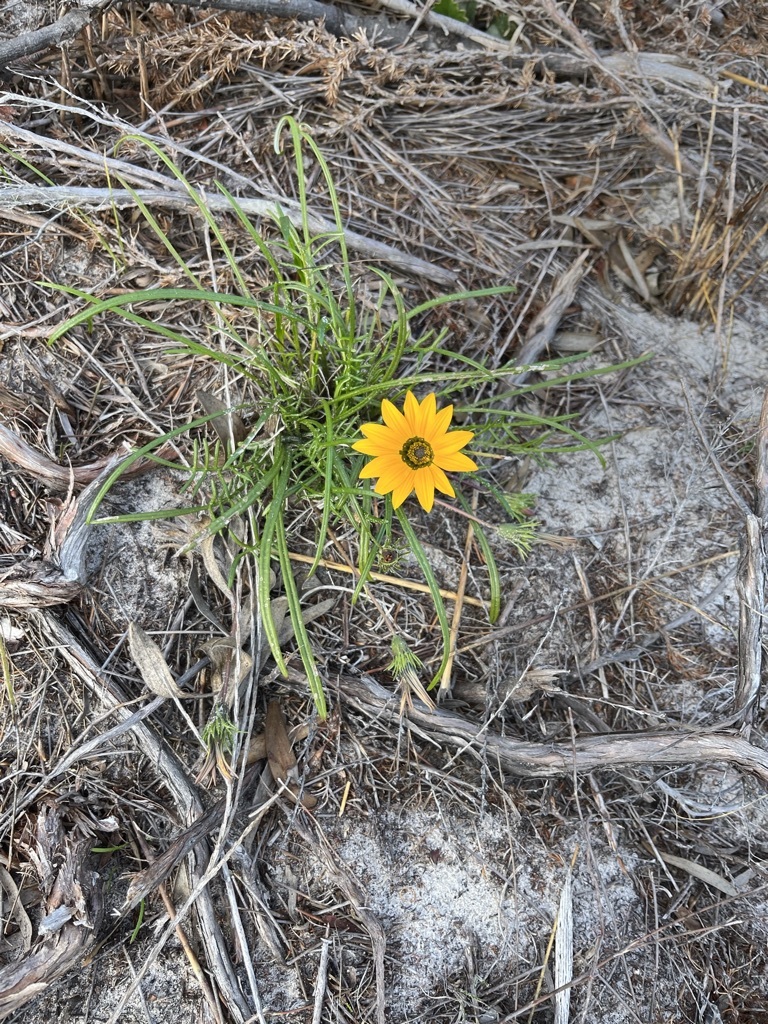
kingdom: Plantae
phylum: Tracheophyta
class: Magnoliopsida
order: Asterales
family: Asteraceae
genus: Gazania
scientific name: Gazania pectinata
